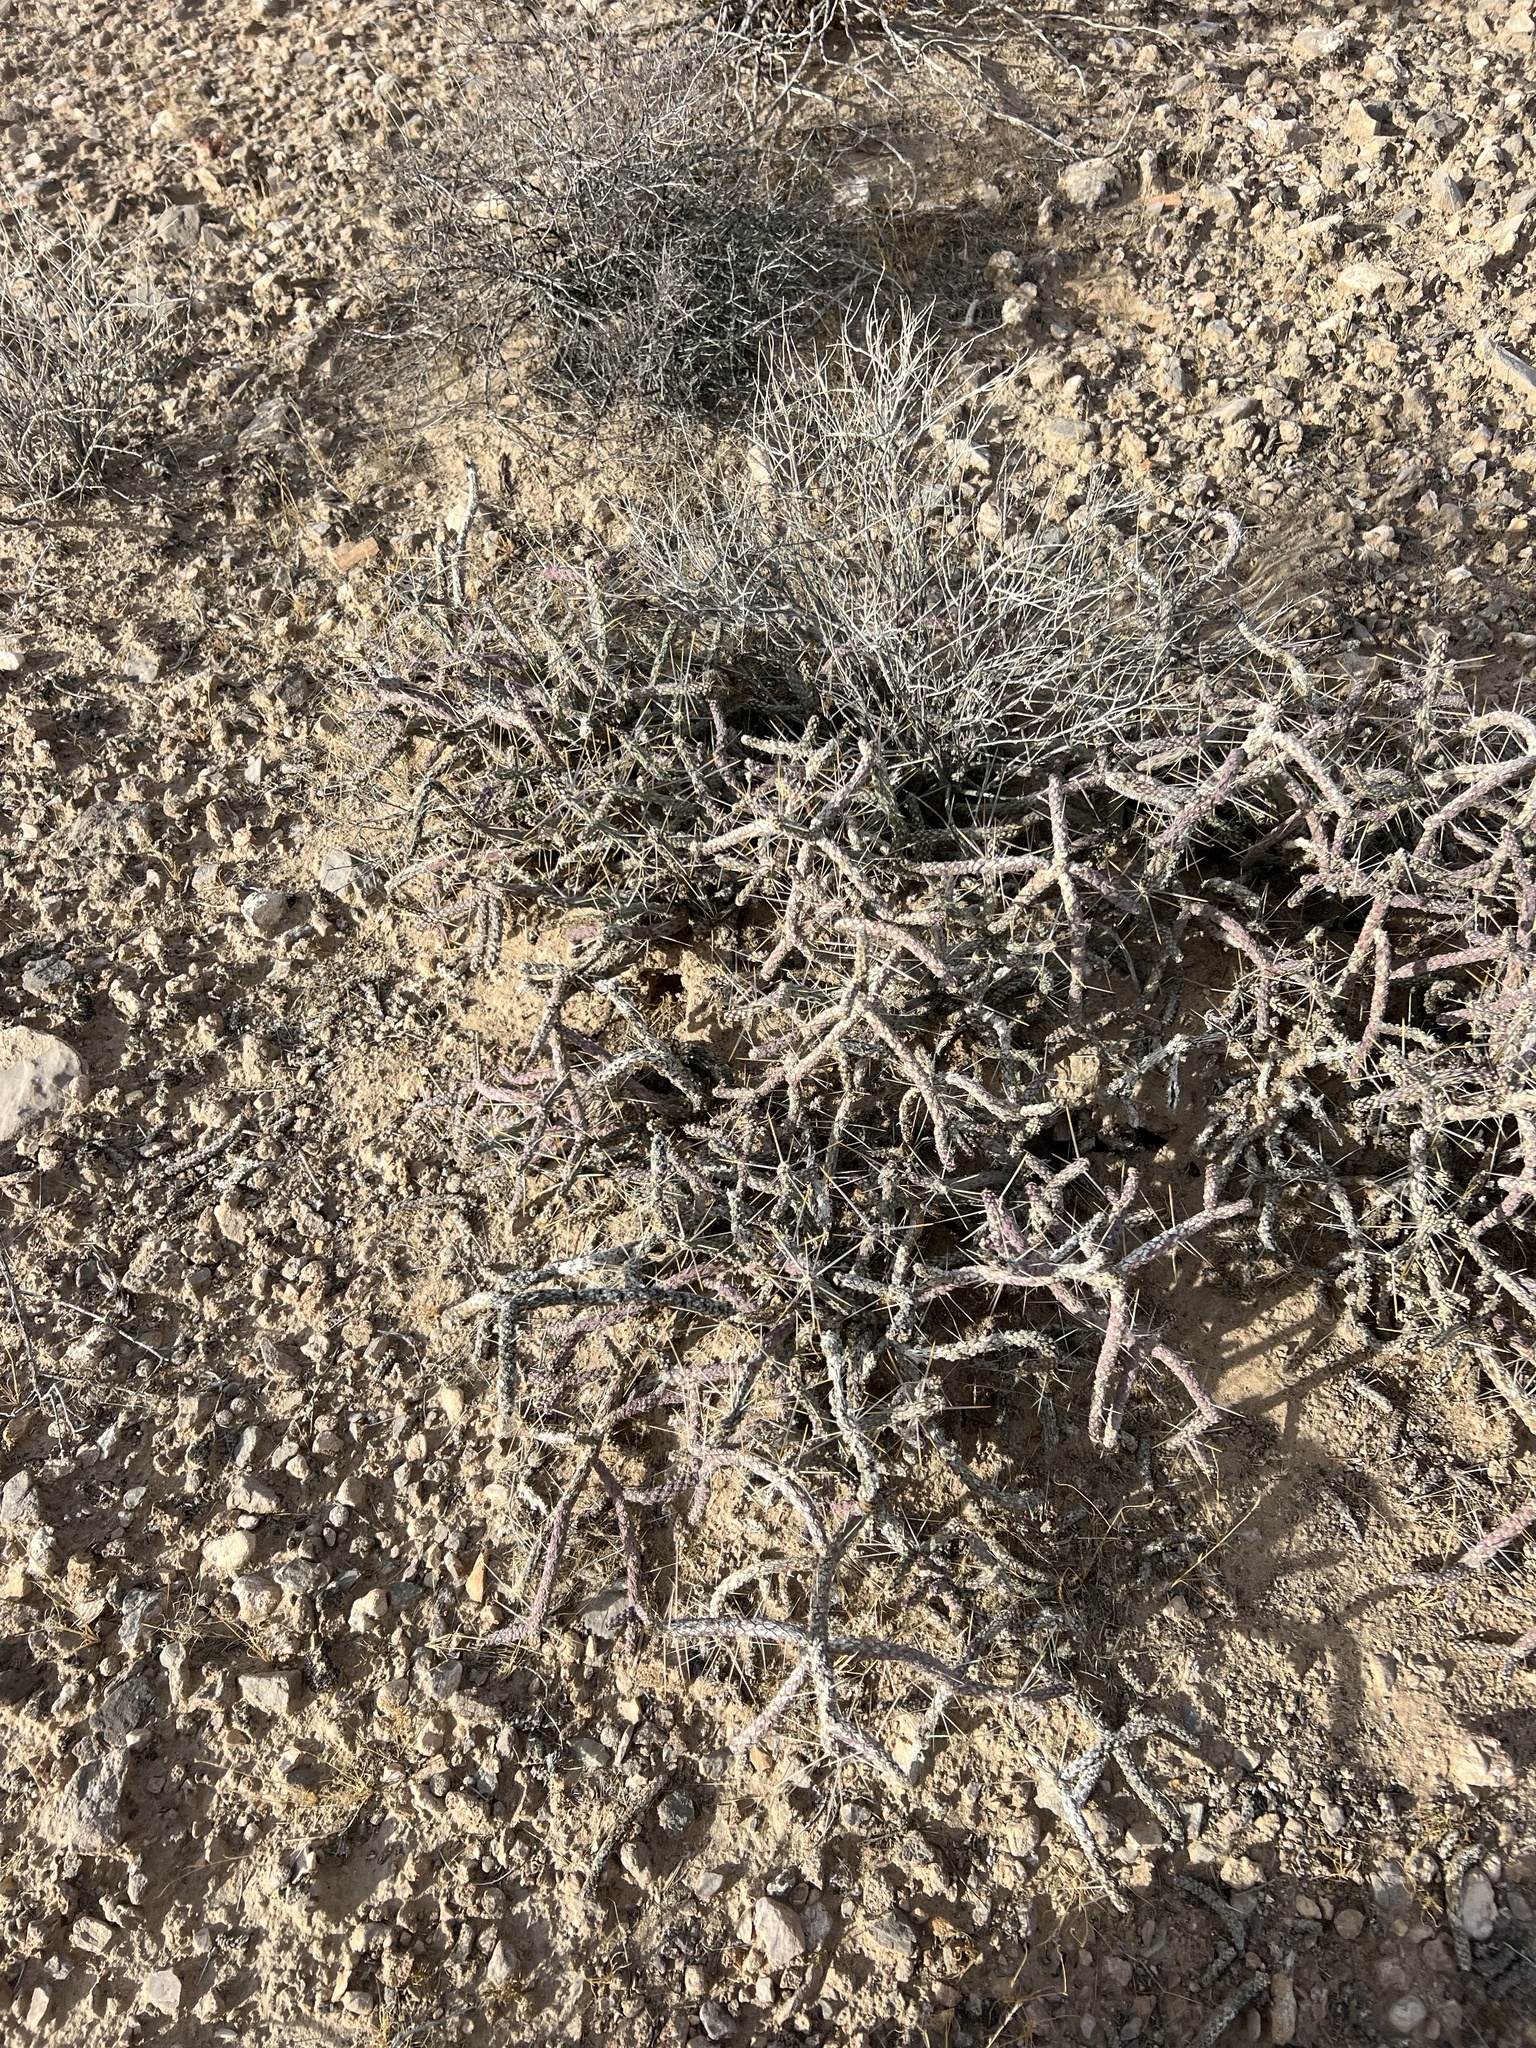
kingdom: Plantae
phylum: Tracheophyta
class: Magnoliopsida
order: Caryophyllales
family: Cactaceae
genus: Cylindropuntia
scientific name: Cylindropuntia ramosissima
